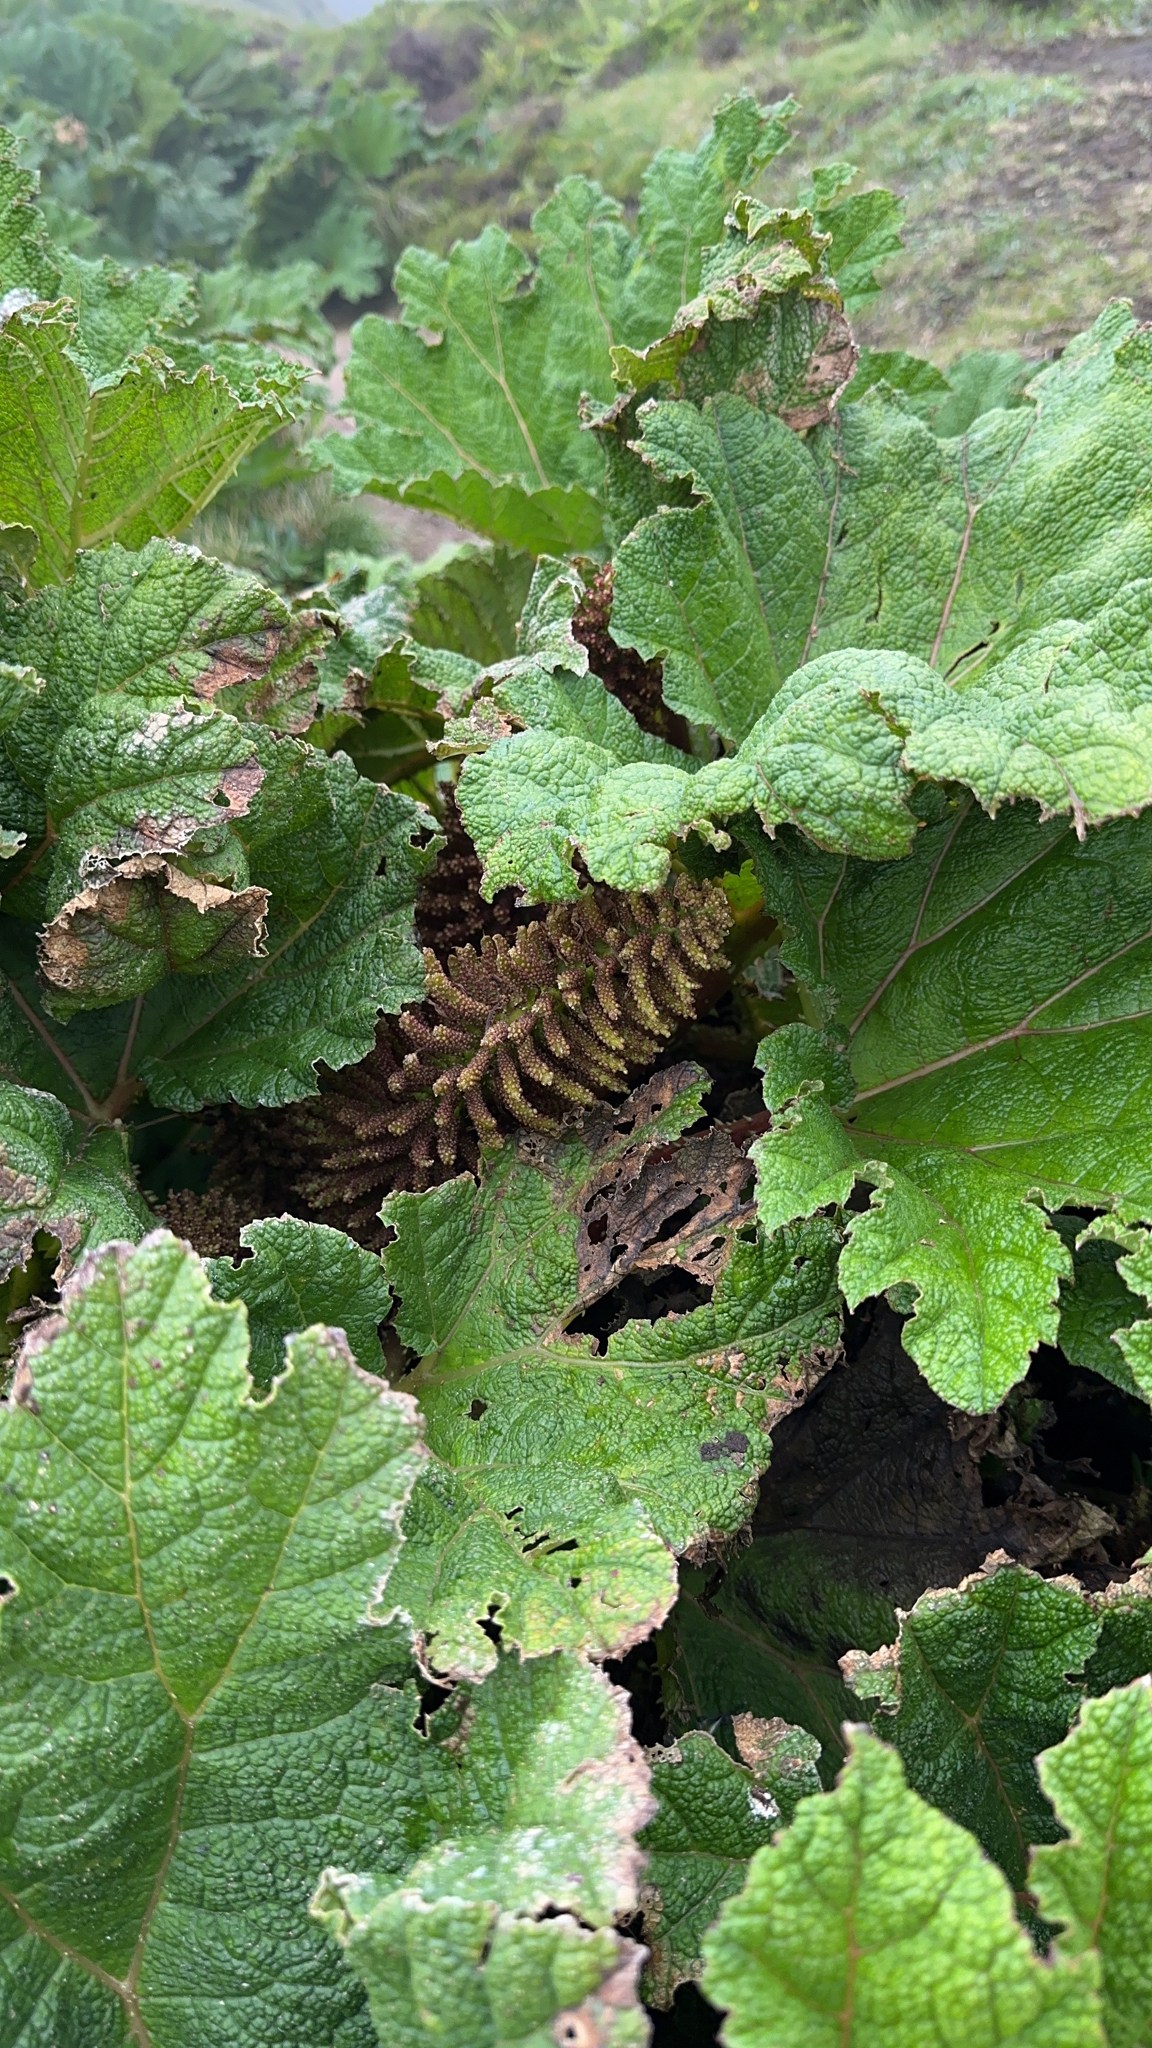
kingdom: Plantae
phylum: Tracheophyta
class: Magnoliopsida
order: Gunnerales
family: Gunneraceae
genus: Gunnera
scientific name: Gunnera tinctoria
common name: Giant-rhubarb
